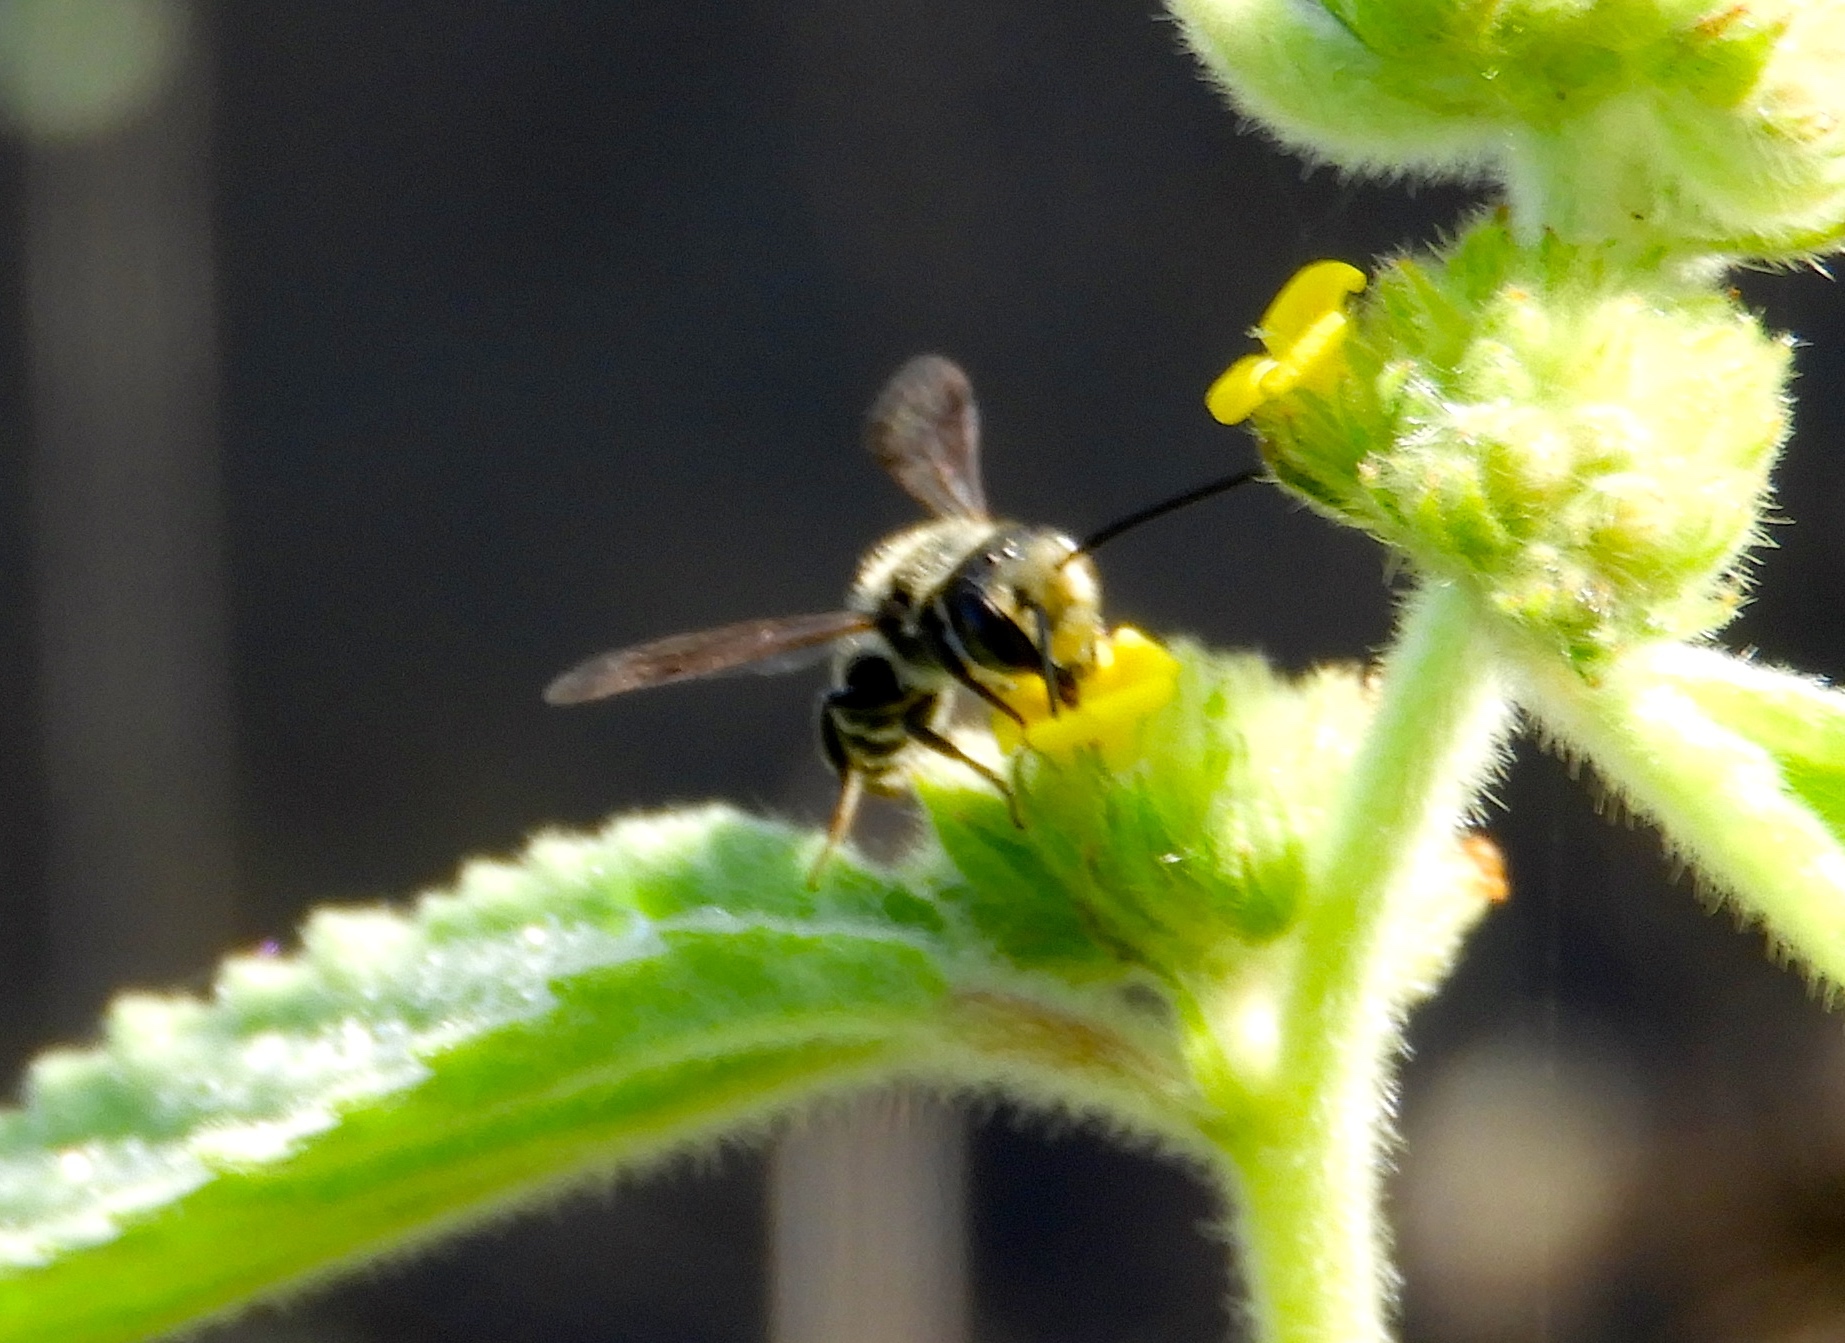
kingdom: Animalia
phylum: Arthropoda
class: Insecta
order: Hymenoptera
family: Megachilidae
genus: Megachile
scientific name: Megachile
